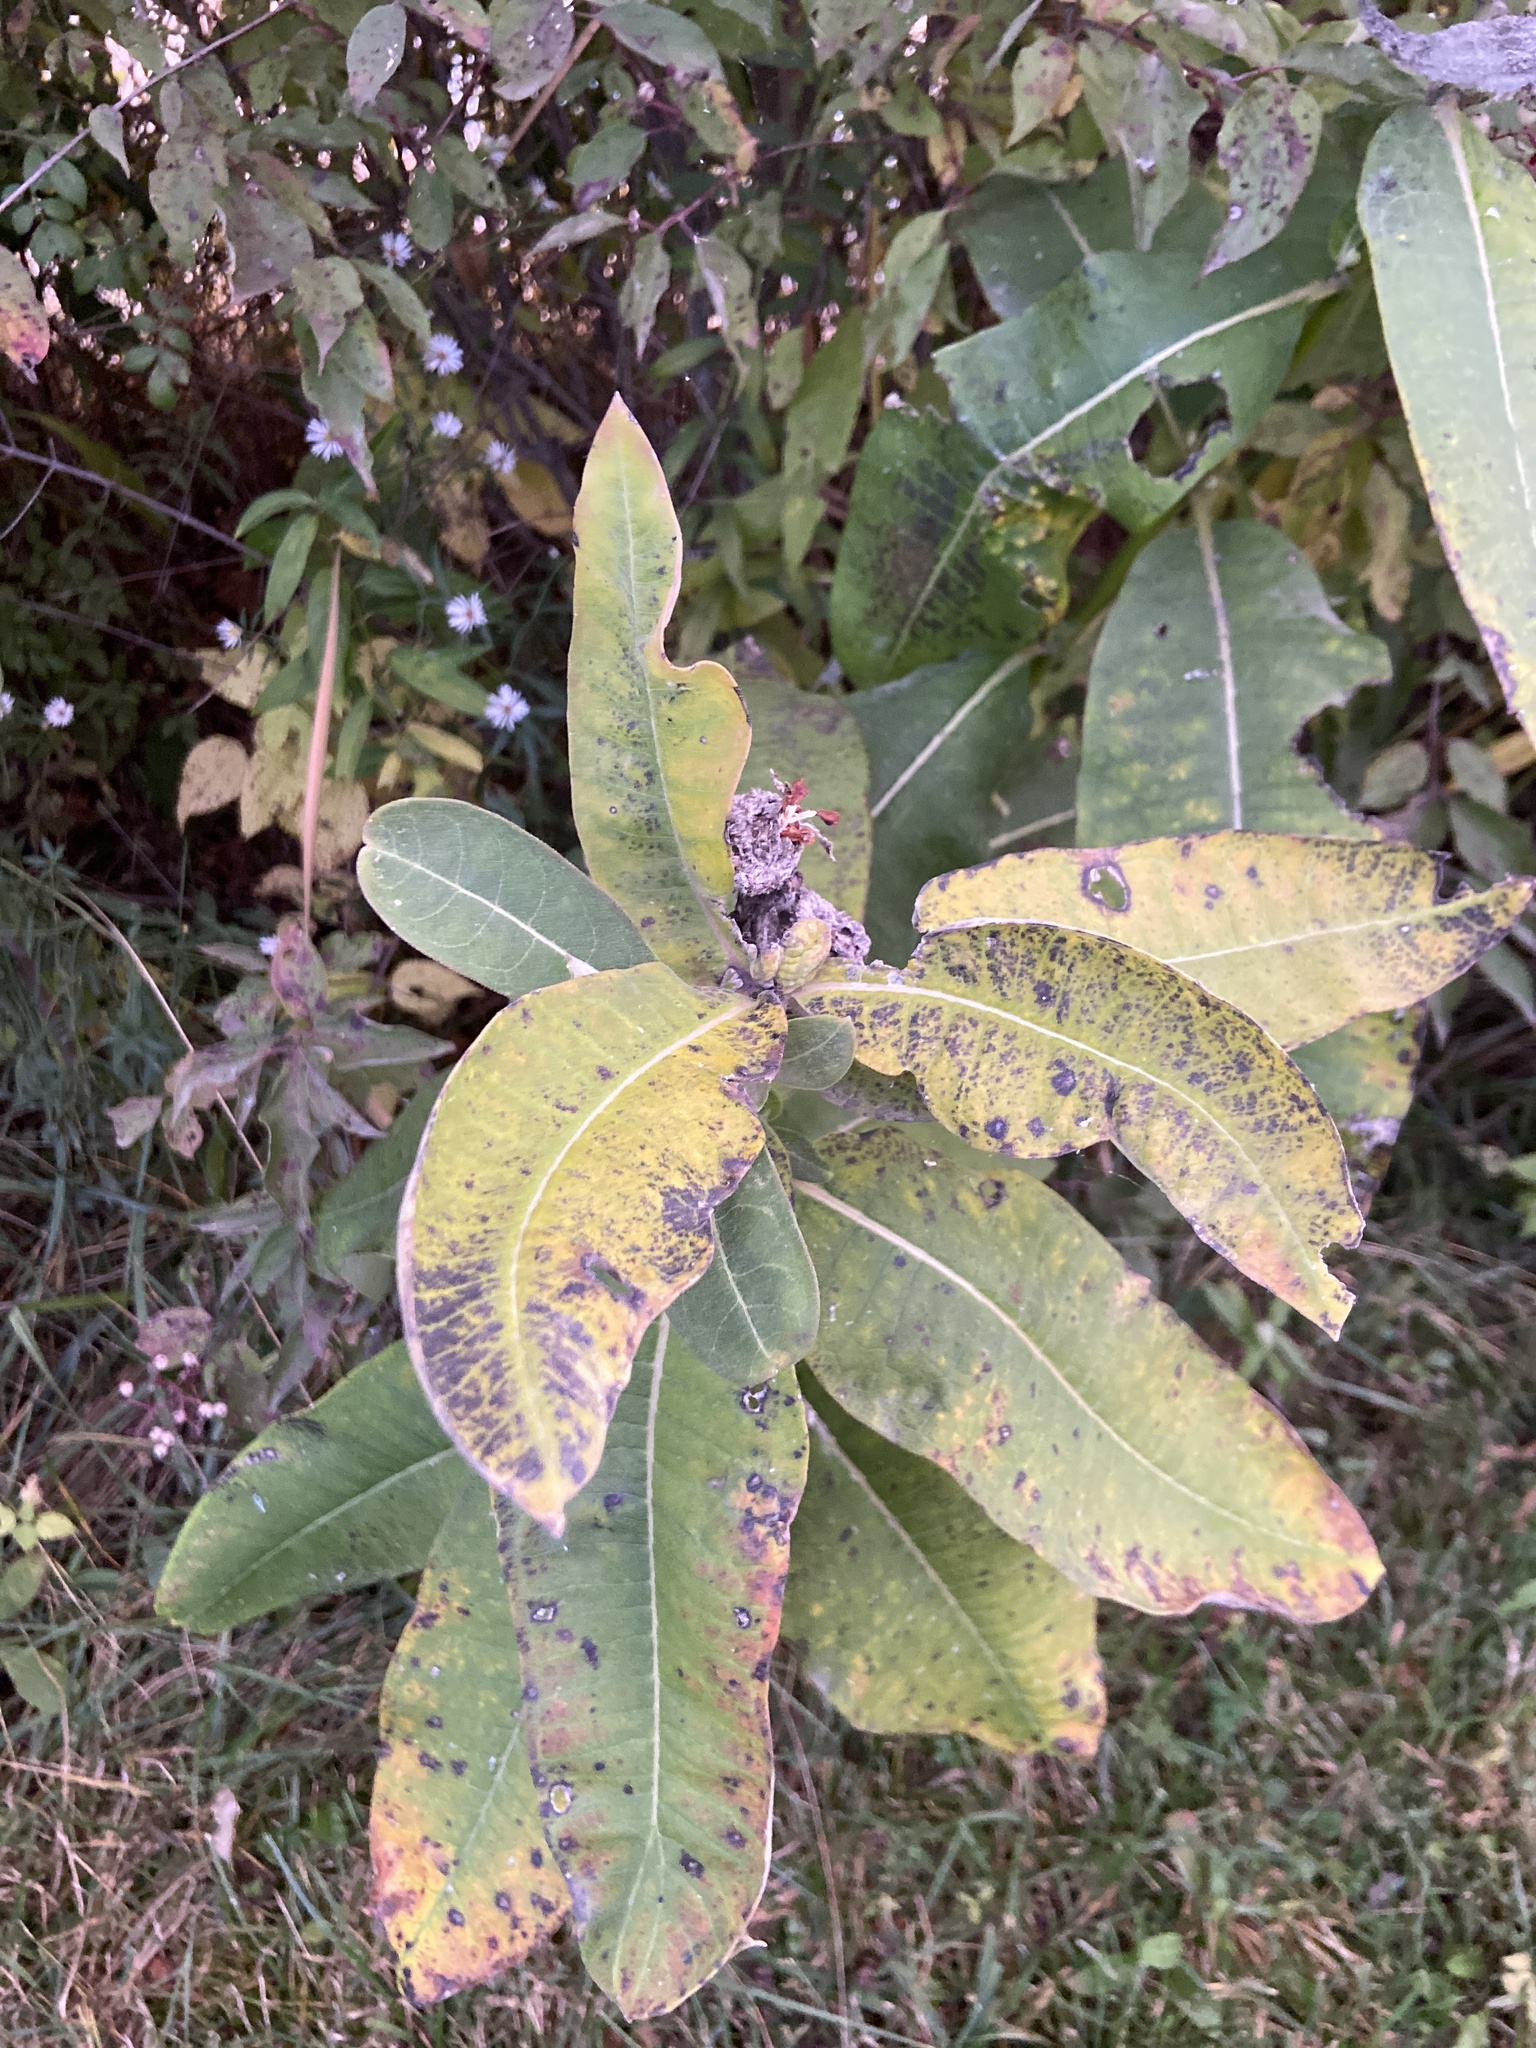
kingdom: Plantae
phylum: Tracheophyta
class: Magnoliopsida
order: Gentianales
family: Apocynaceae
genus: Asclepias
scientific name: Asclepias syriaca
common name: Common milkweed
